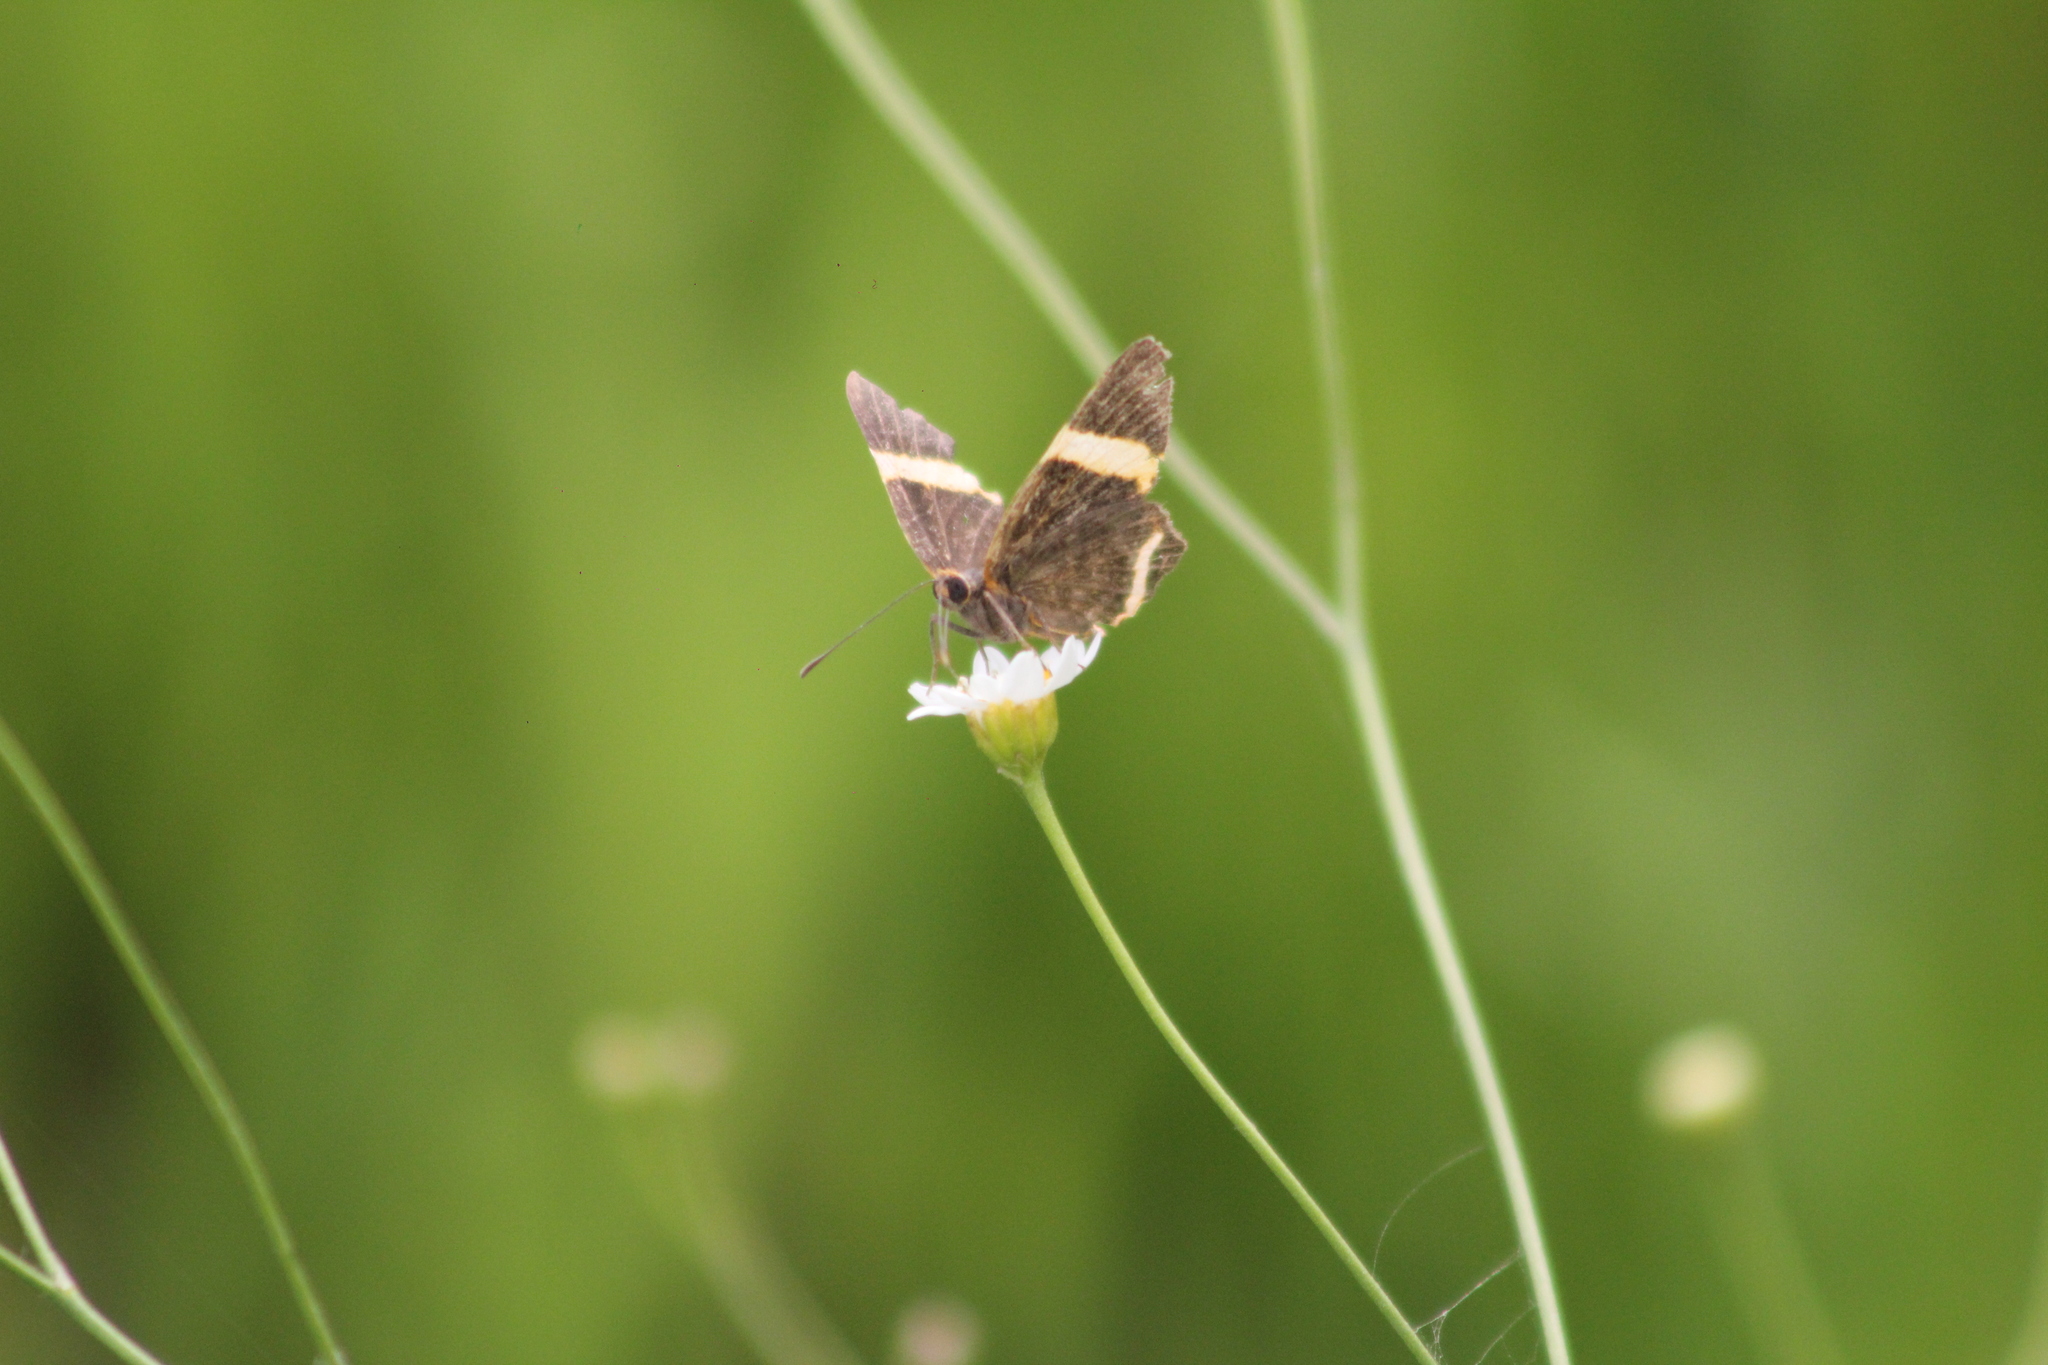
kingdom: Animalia
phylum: Arthropoda
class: Insecta
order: Lepidoptera
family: Riodinidae
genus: Riodina
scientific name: Riodina lysippoides
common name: Little dancer metalmark
